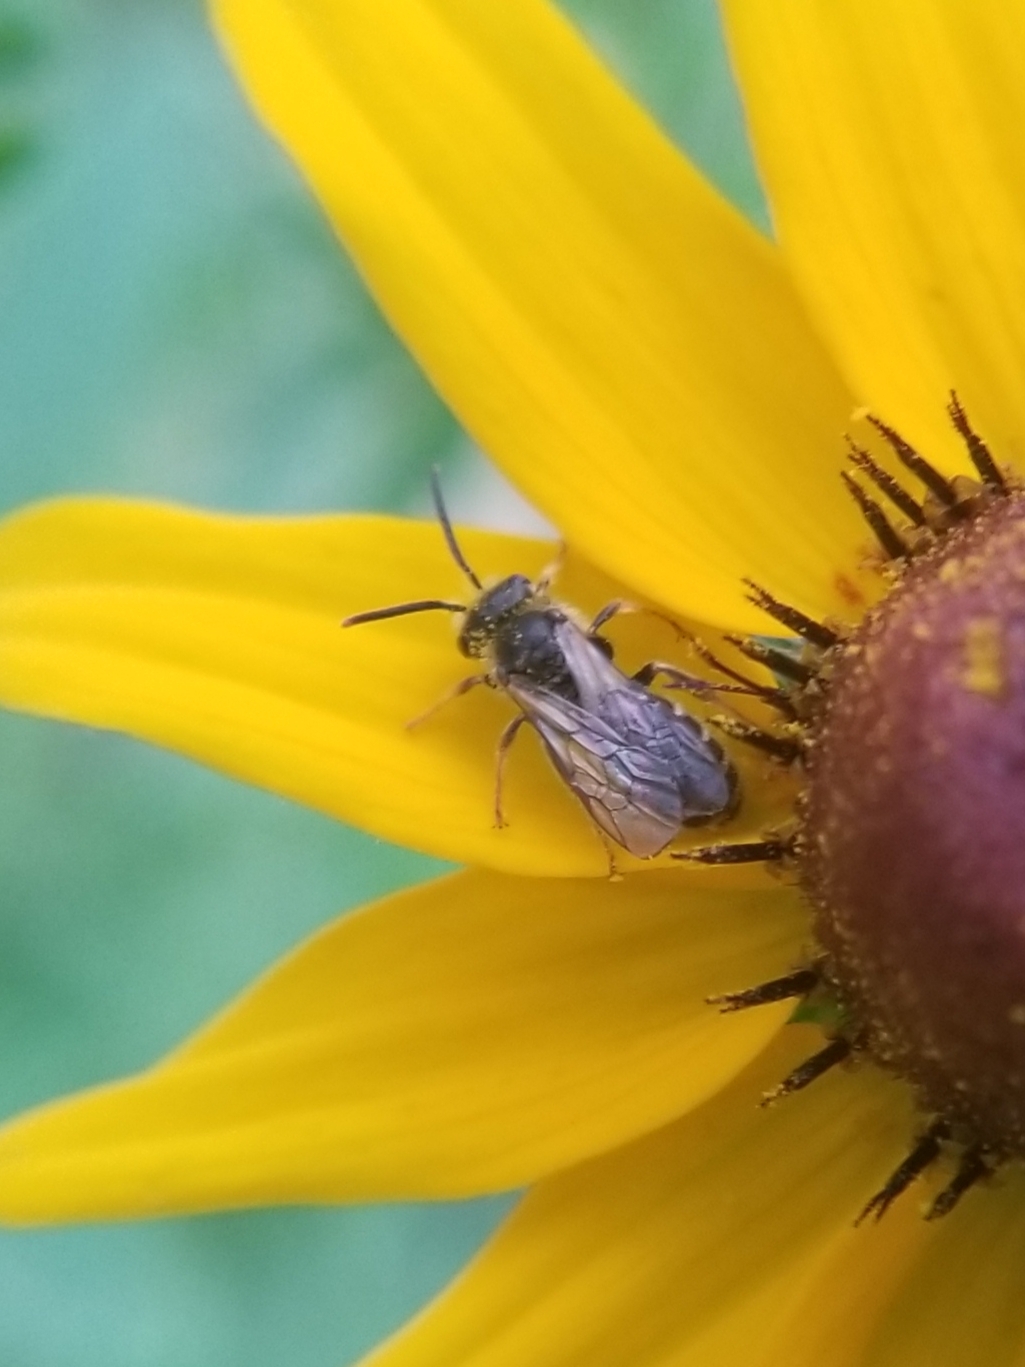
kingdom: Animalia
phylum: Arthropoda
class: Insecta
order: Hymenoptera
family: Halictidae
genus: Halictus
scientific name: Halictus ligatus
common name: Ligated furrow bee
